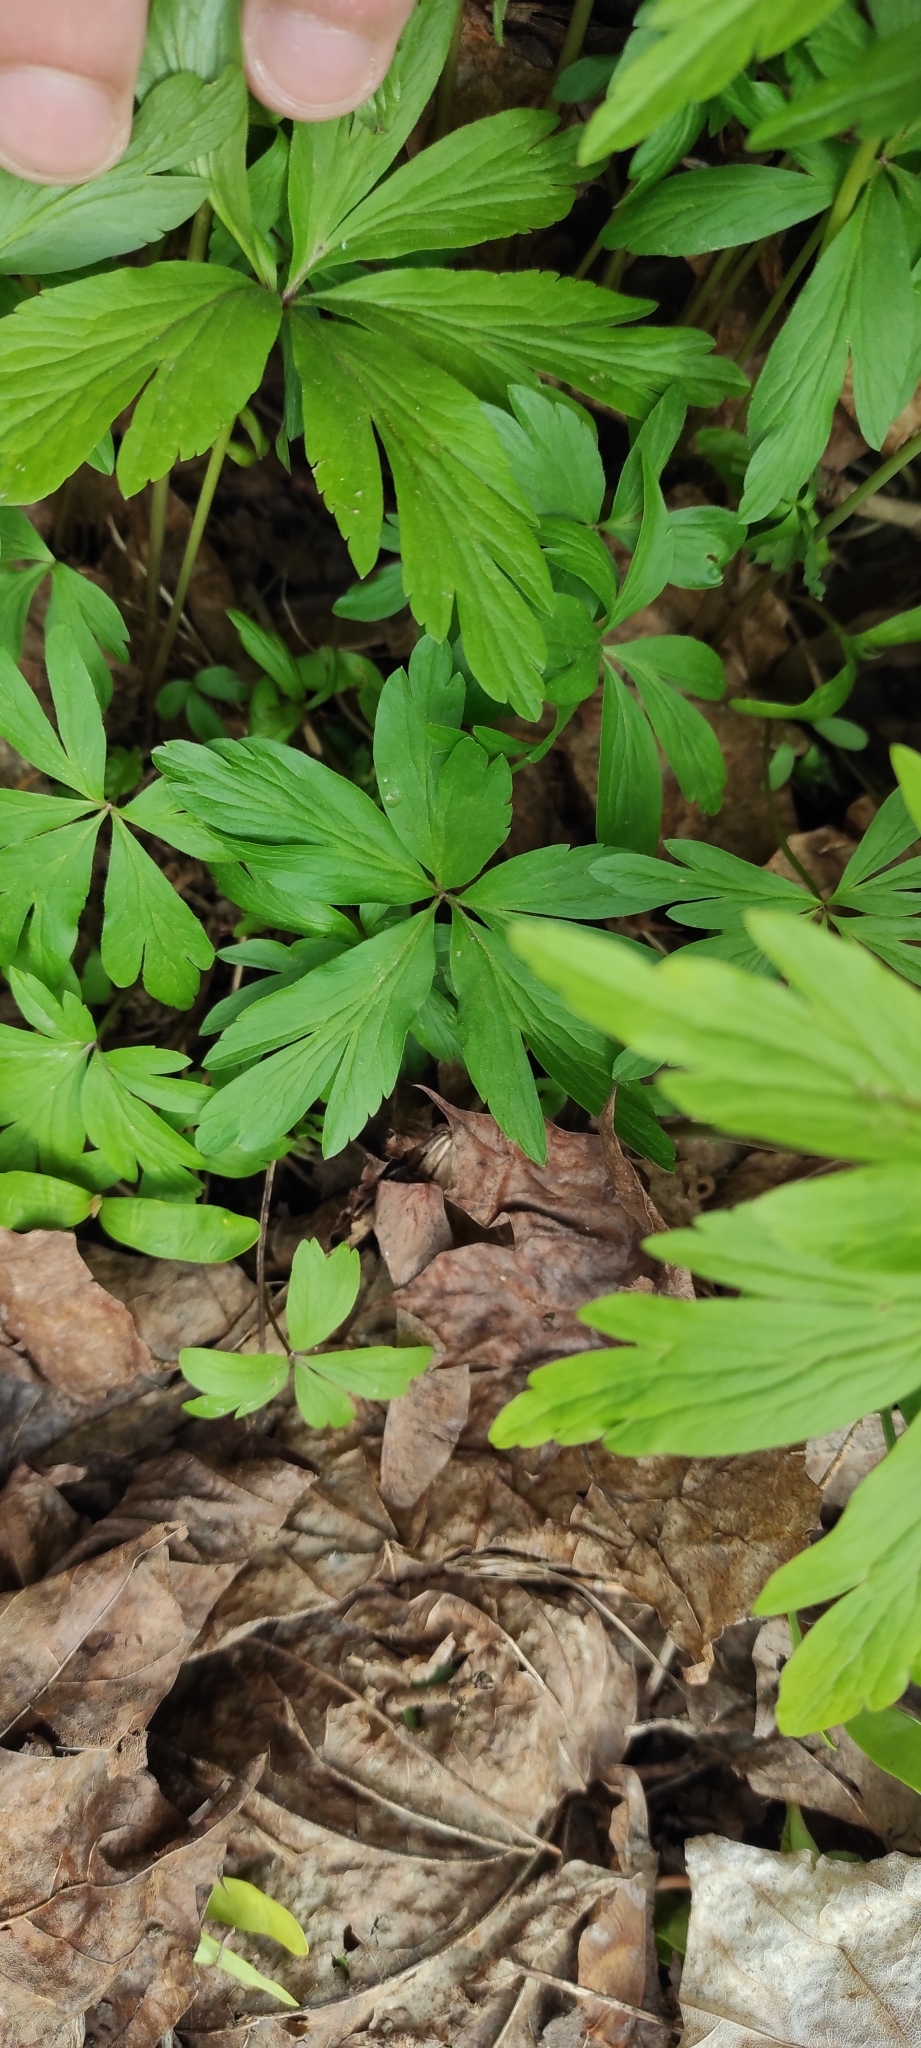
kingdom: Plantae
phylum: Tracheophyta
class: Magnoliopsida
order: Ranunculales
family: Ranunculaceae
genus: Anemone
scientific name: Anemone ranunculoides
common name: Yellow anemone
